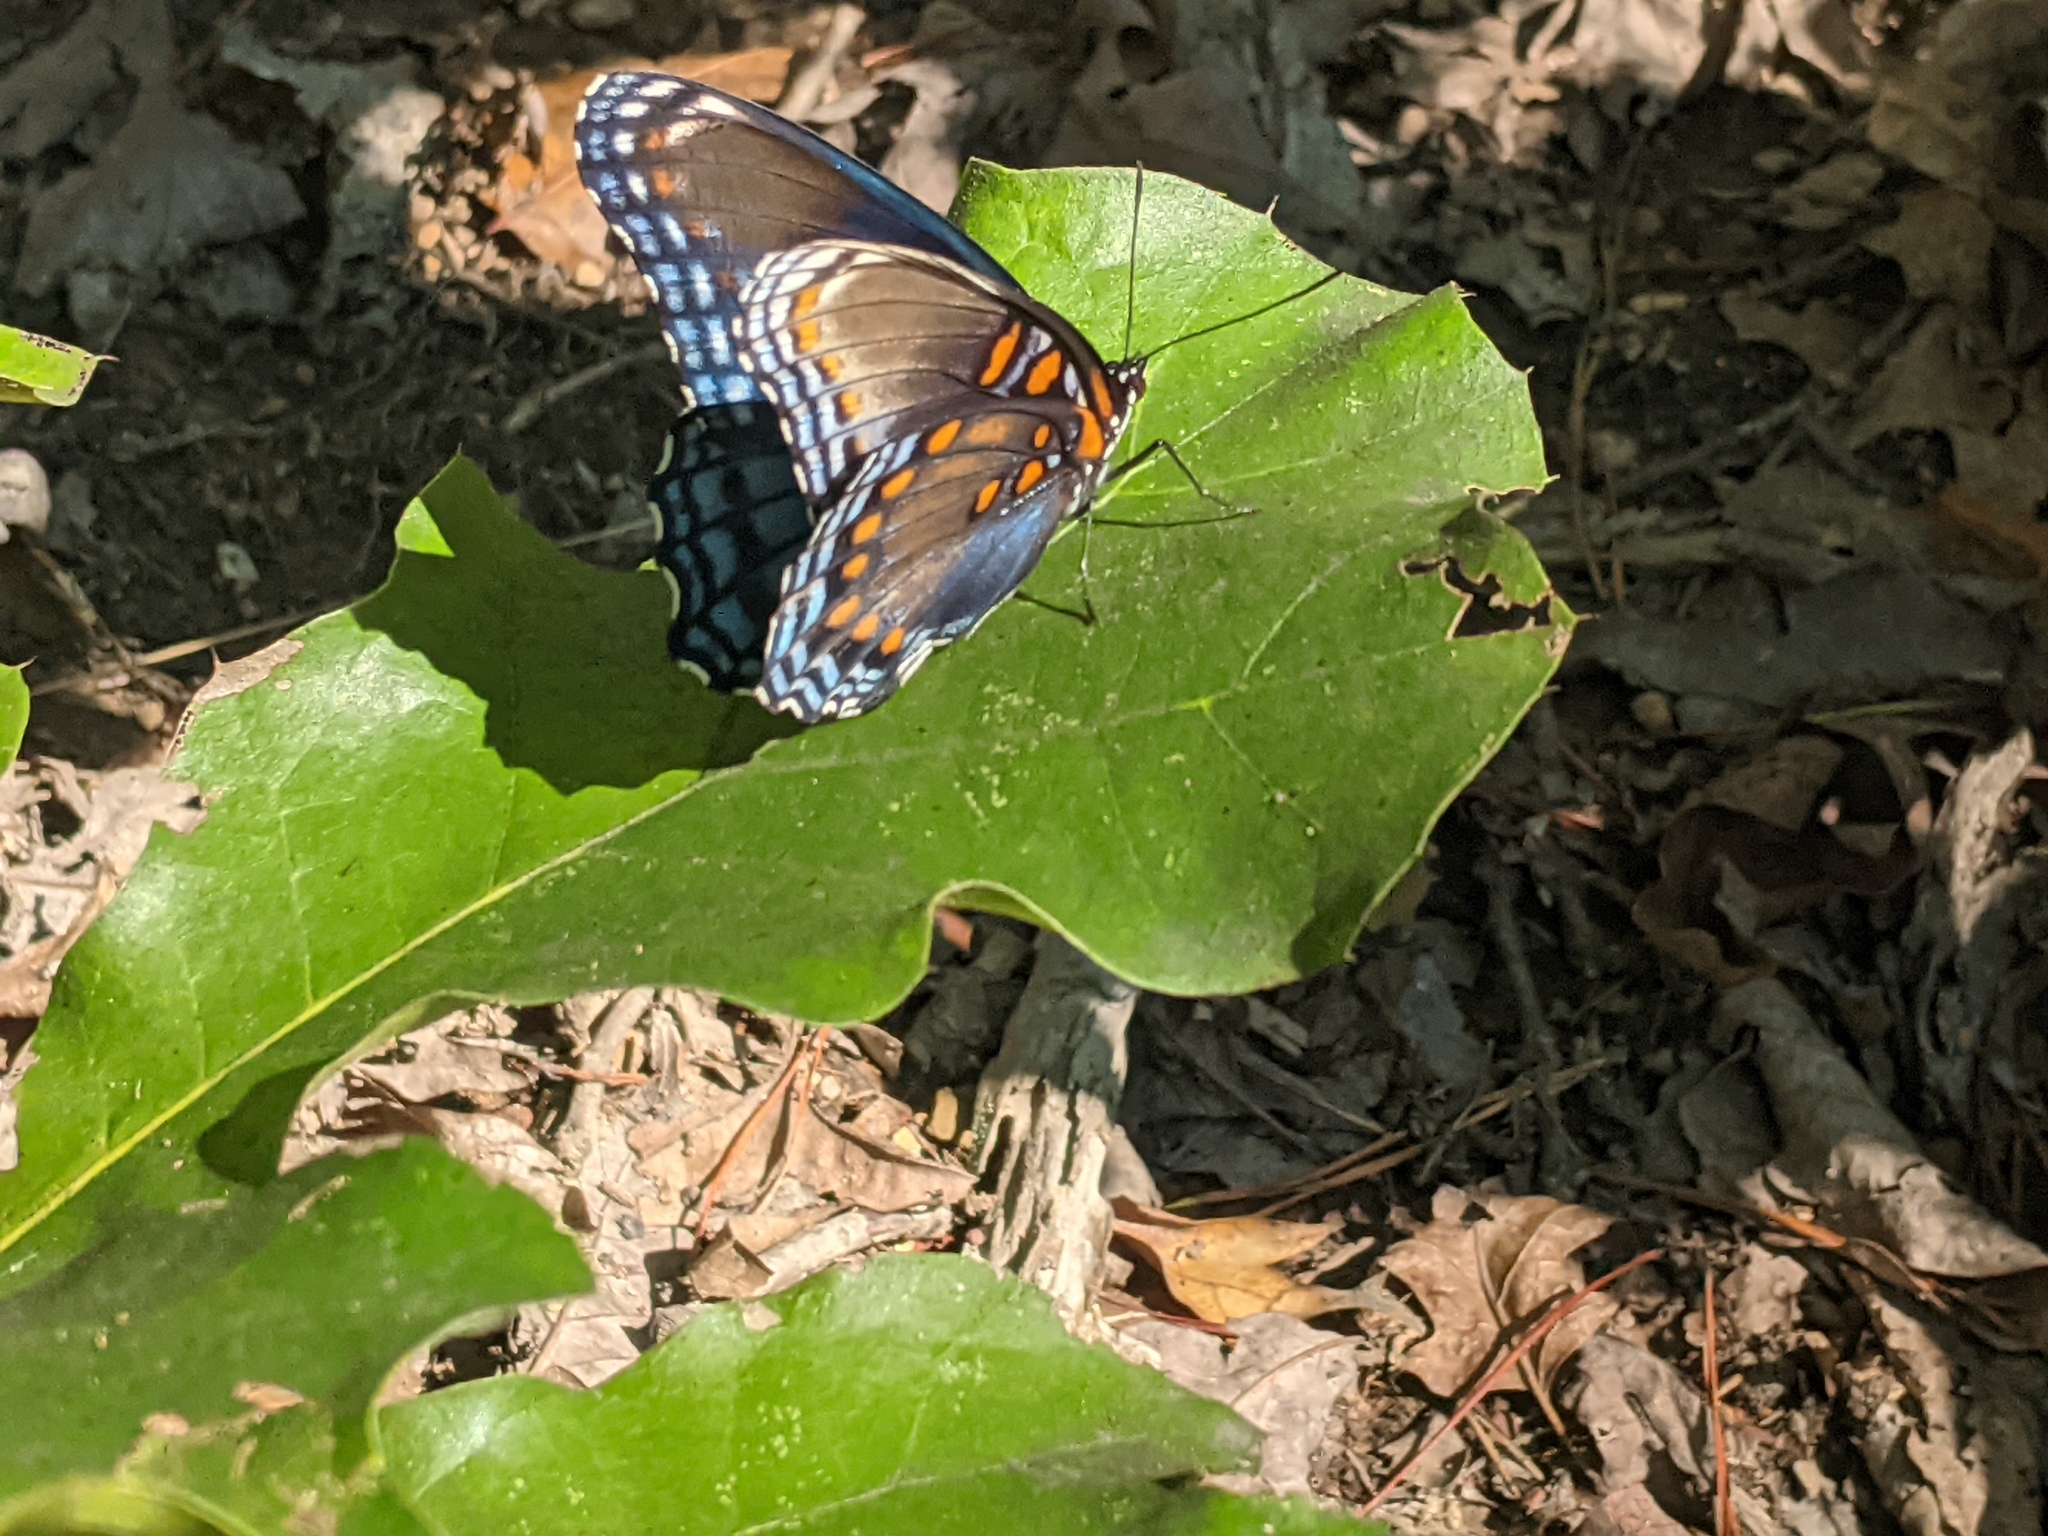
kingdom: Animalia
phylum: Arthropoda
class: Insecta
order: Lepidoptera
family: Nymphalidae
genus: Limenitis
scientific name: Limenitis arthemis
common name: Red-spotted admiral
